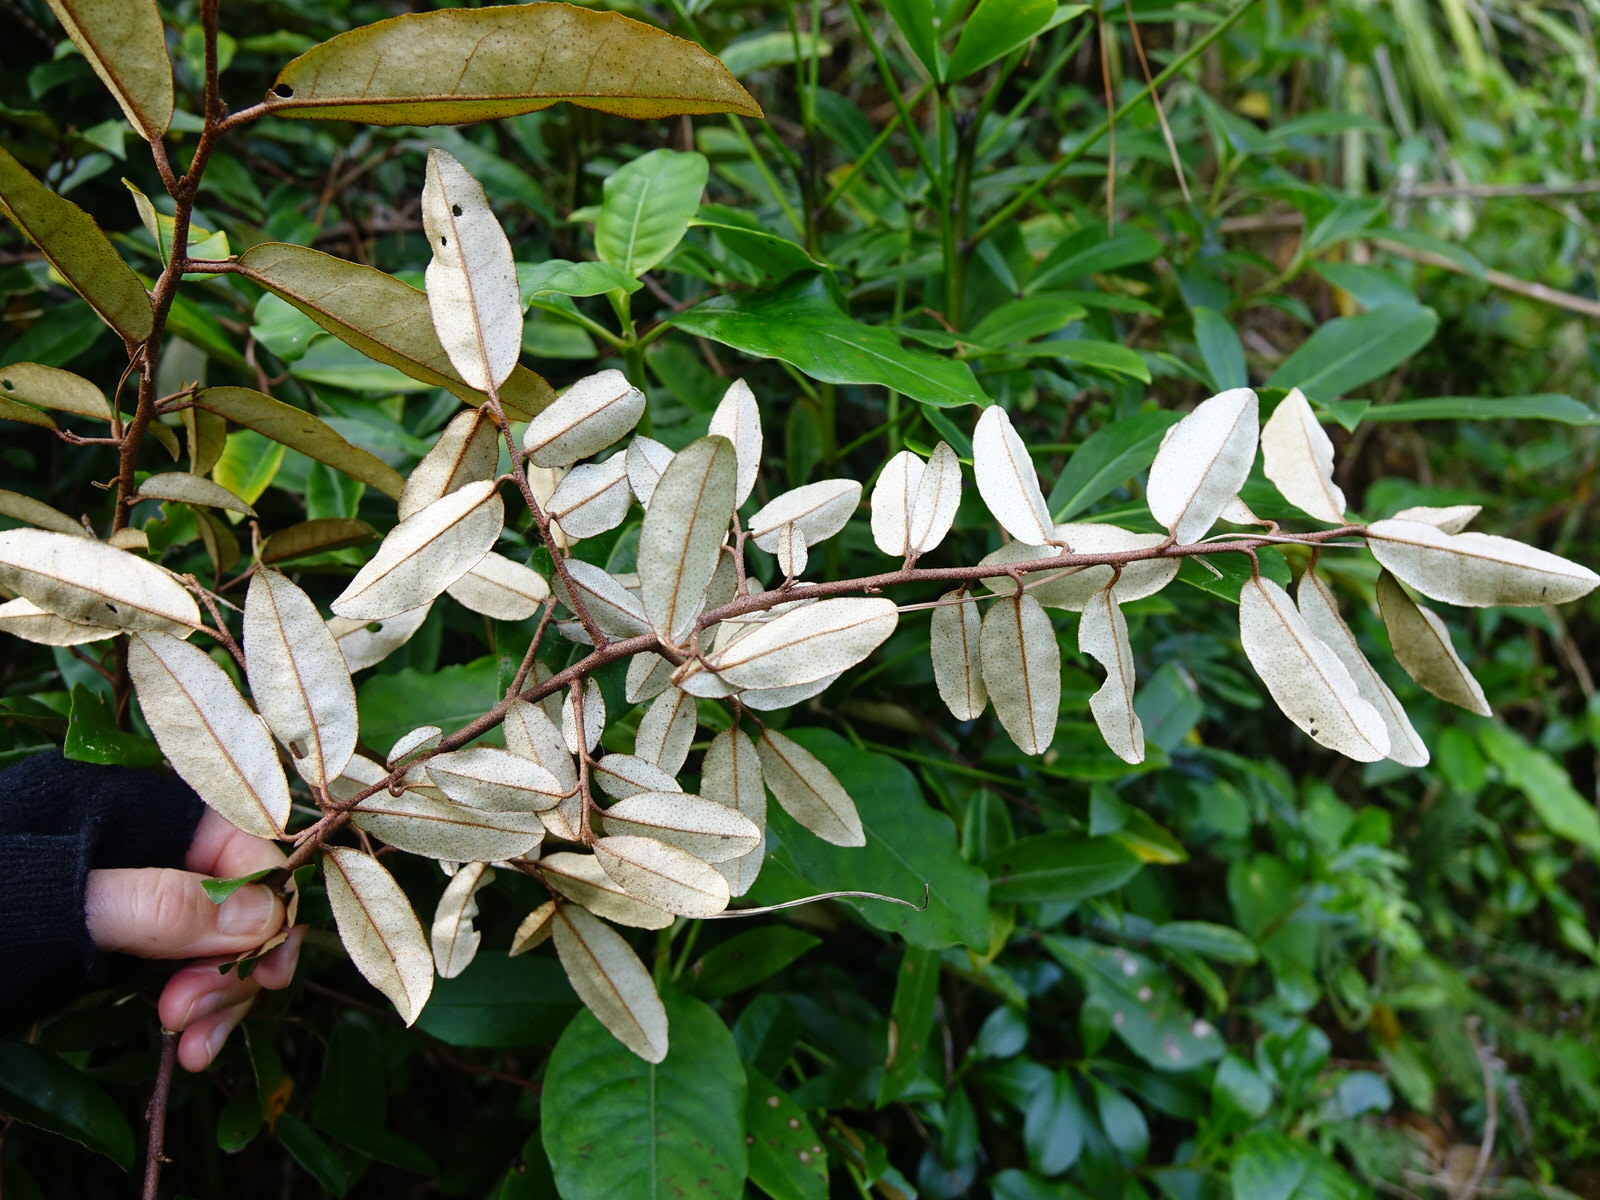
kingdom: Plantae
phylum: Tracheophyta
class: Magnoliopsida
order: Rosales
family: Elaeagnaceae
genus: Elaeagnus
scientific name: Elaeagnus reflexa
